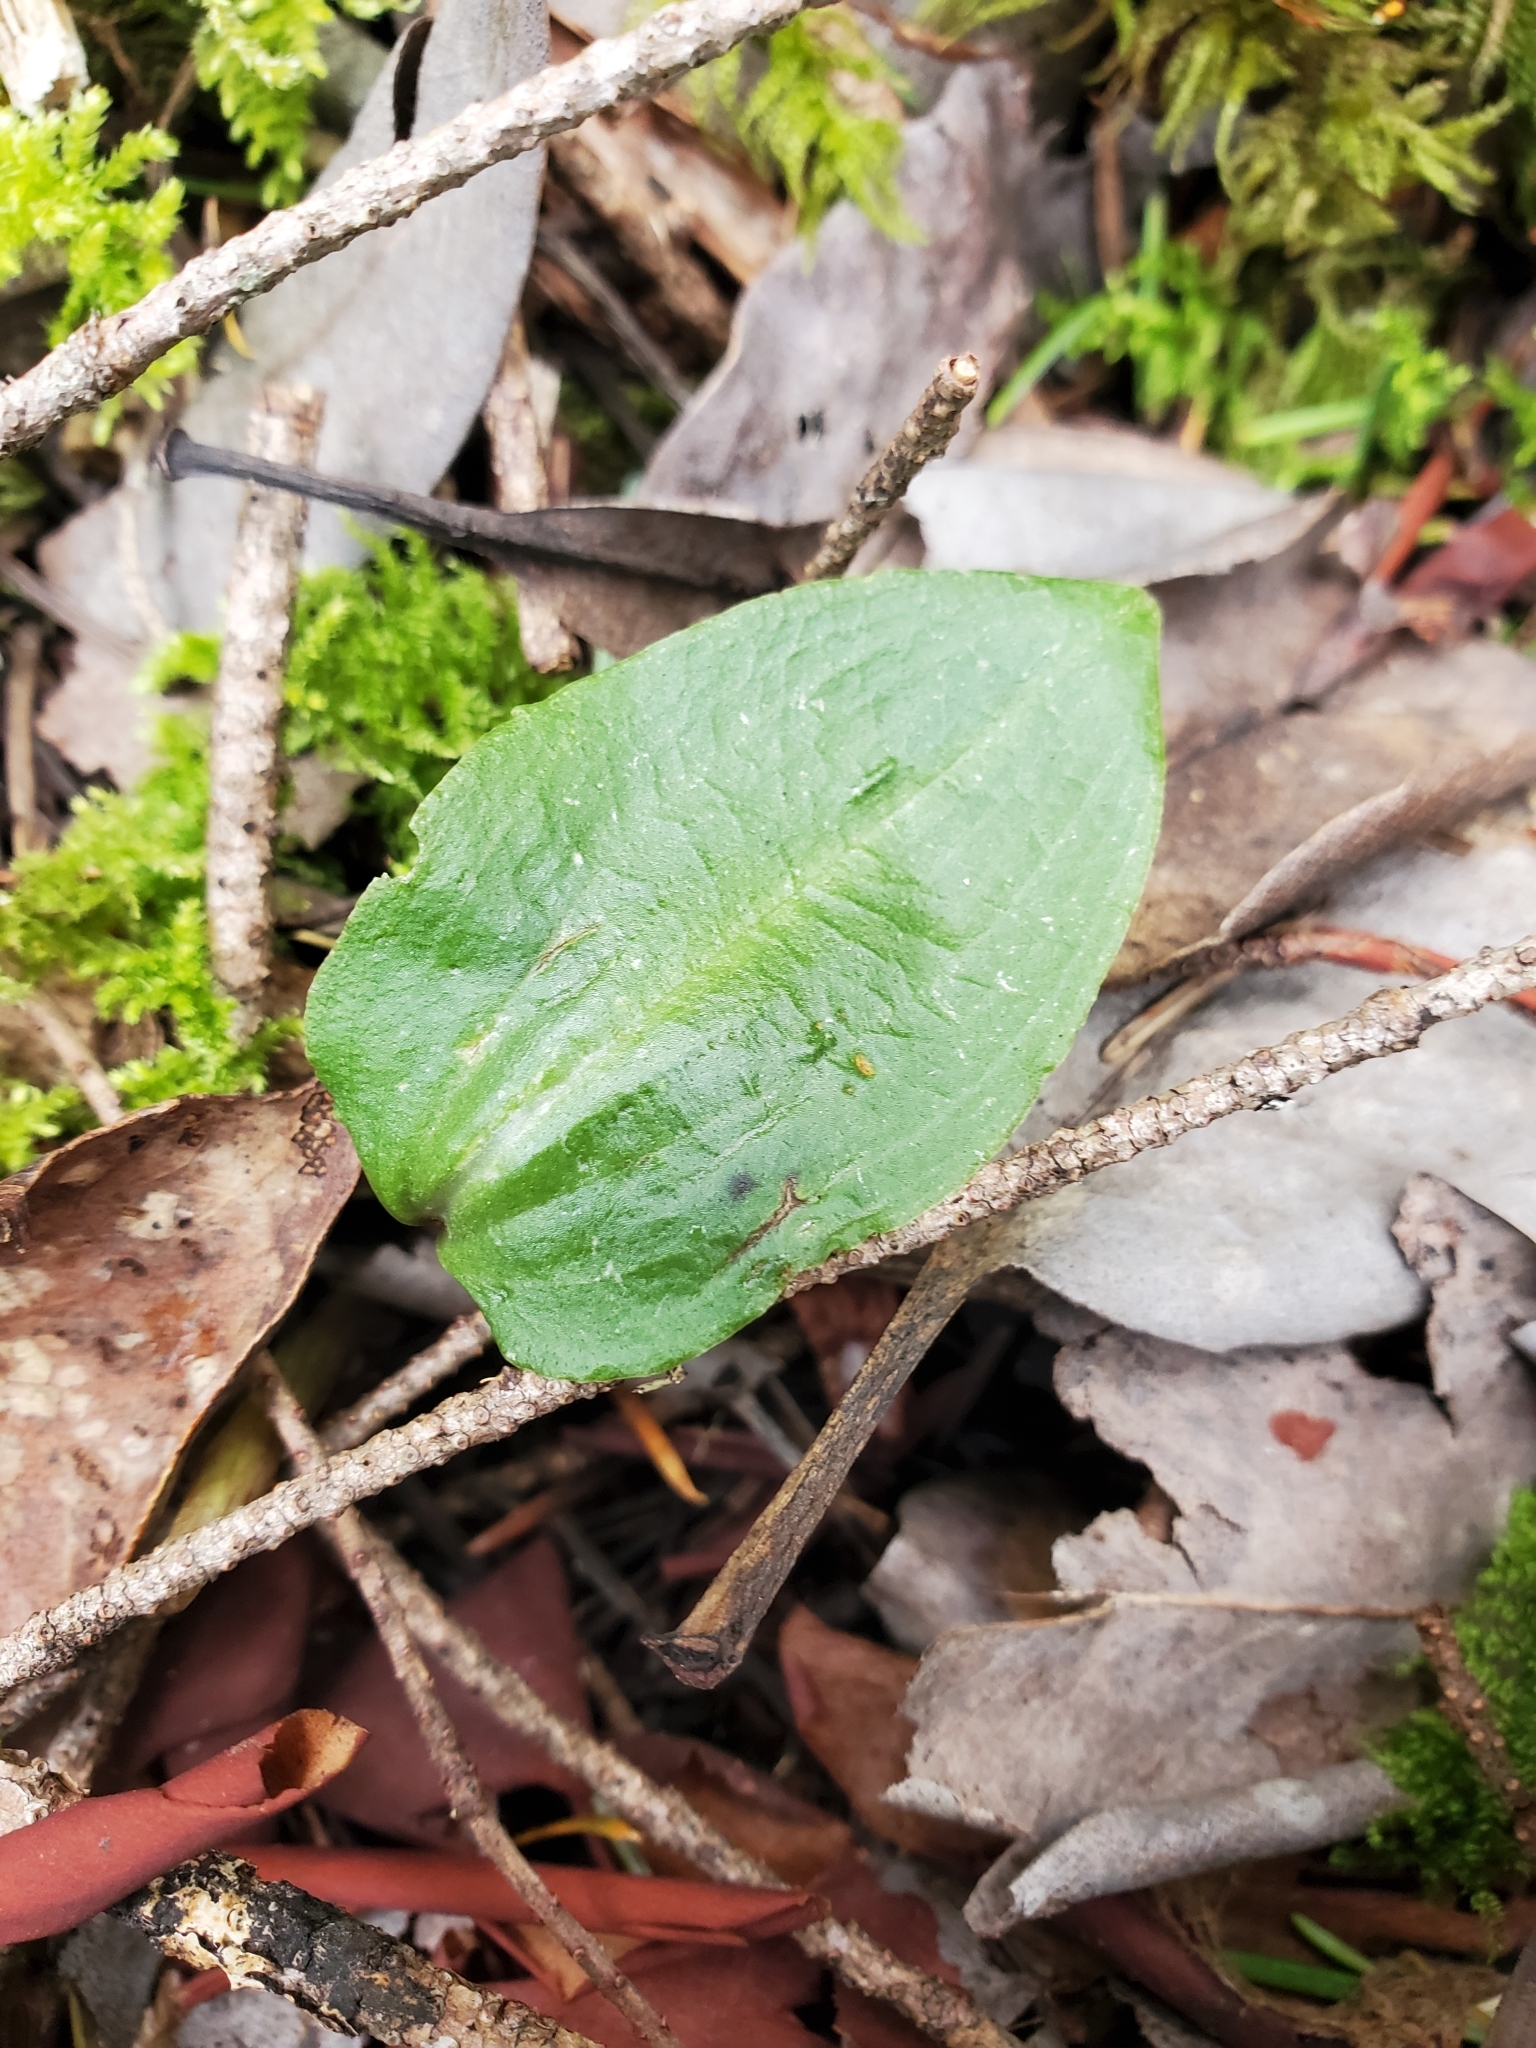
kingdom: Plantae
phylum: Tracheophyta
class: Liliopsida
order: Asparagales
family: Orchidaceae
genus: Calypso
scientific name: Calypso bulbosa
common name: Calypso
